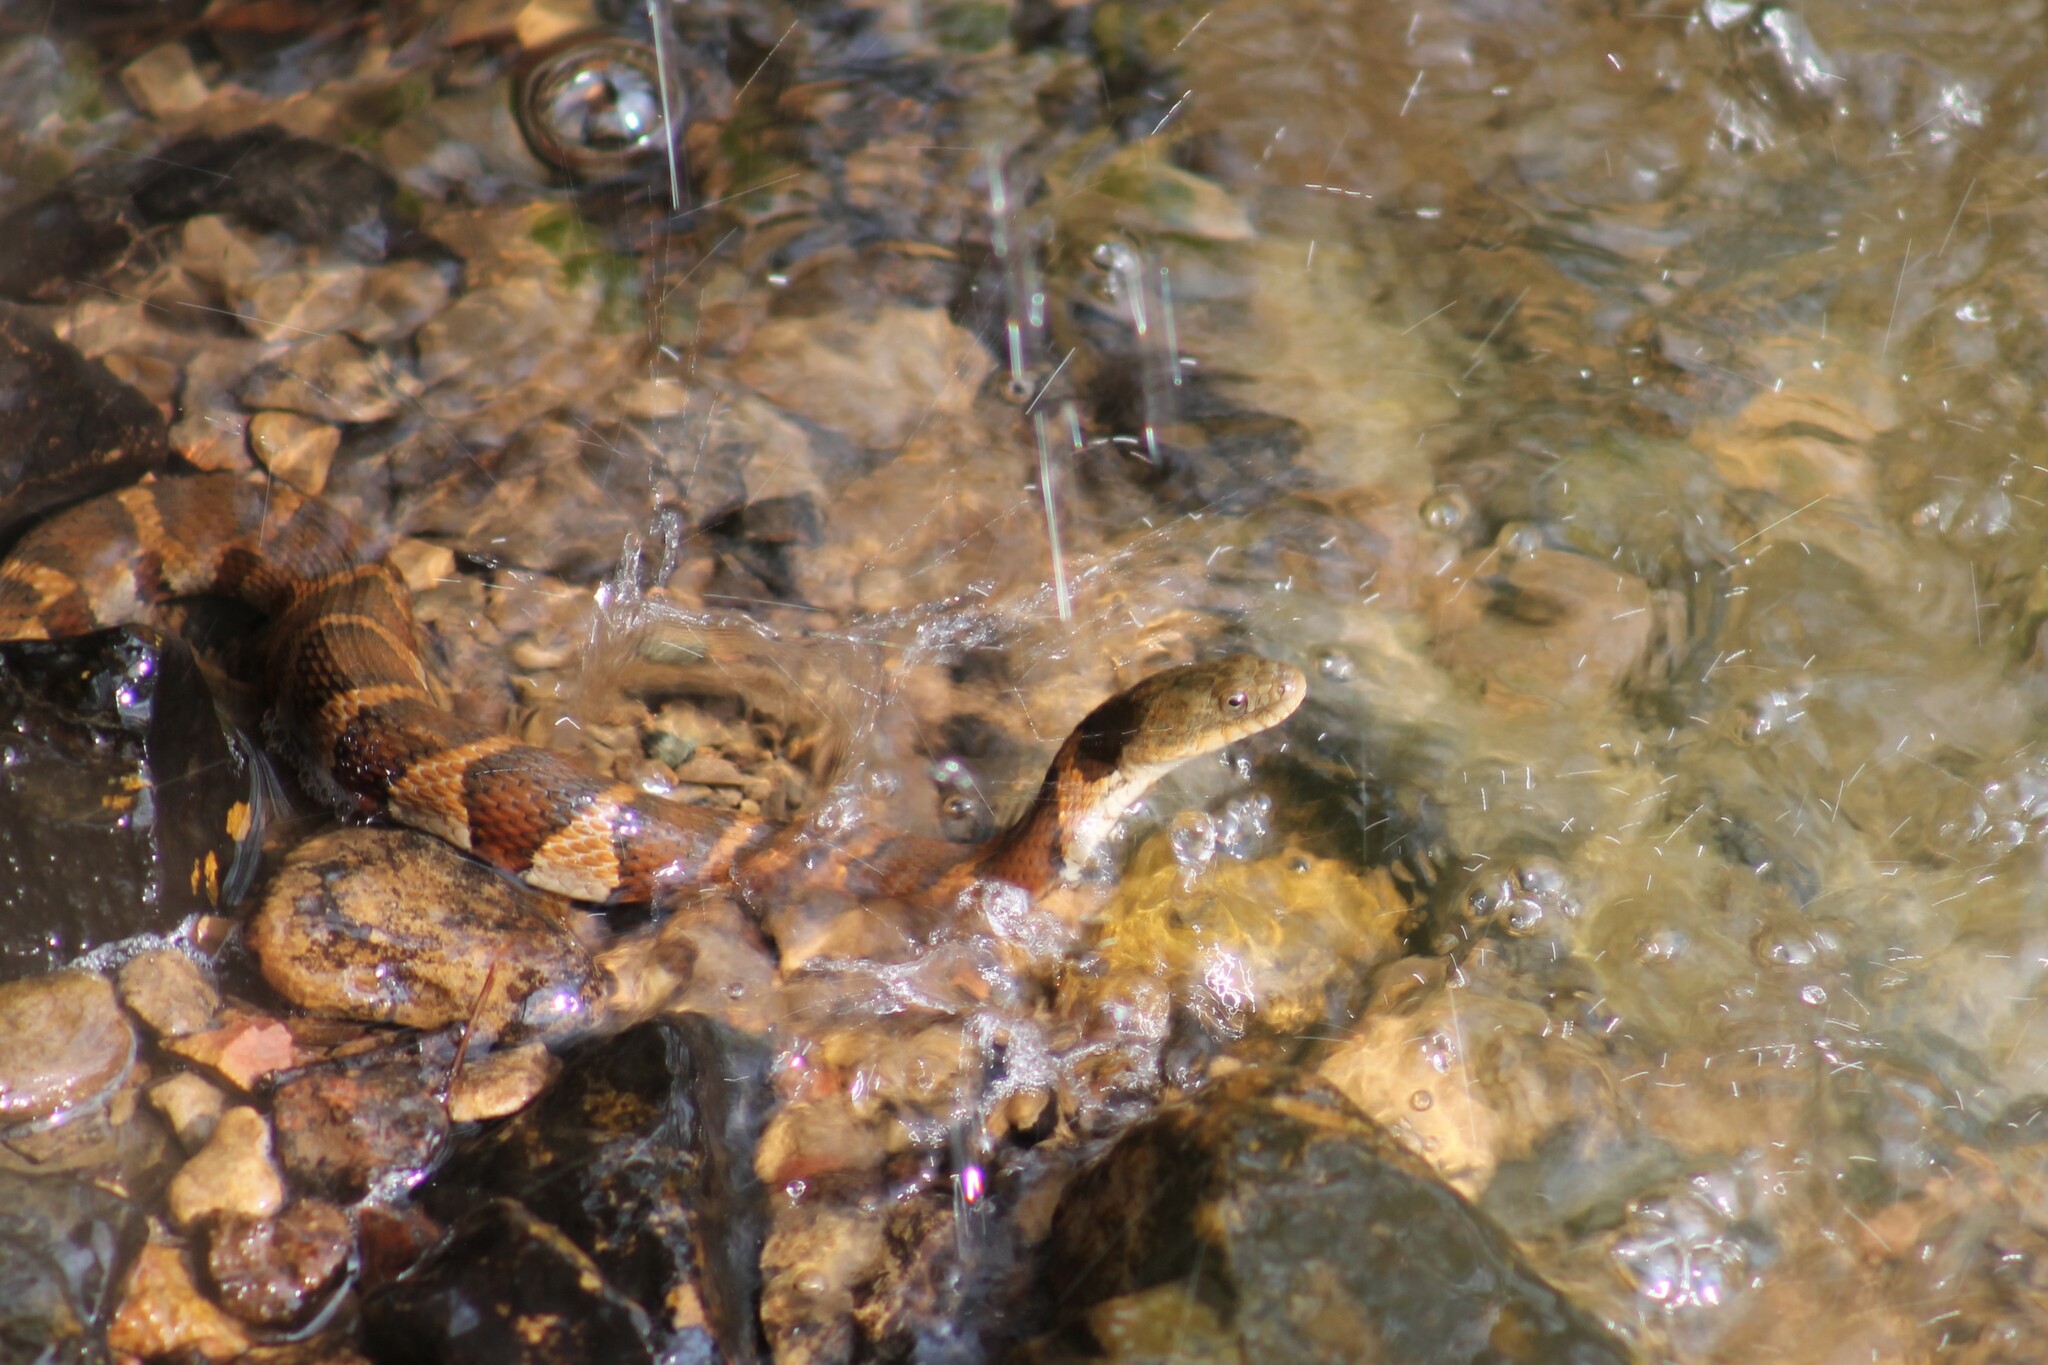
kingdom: Animalia
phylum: Chordata
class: Squamata
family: Colubridae
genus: Nerodia
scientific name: Nerodia sipedon
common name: Northern water snake
